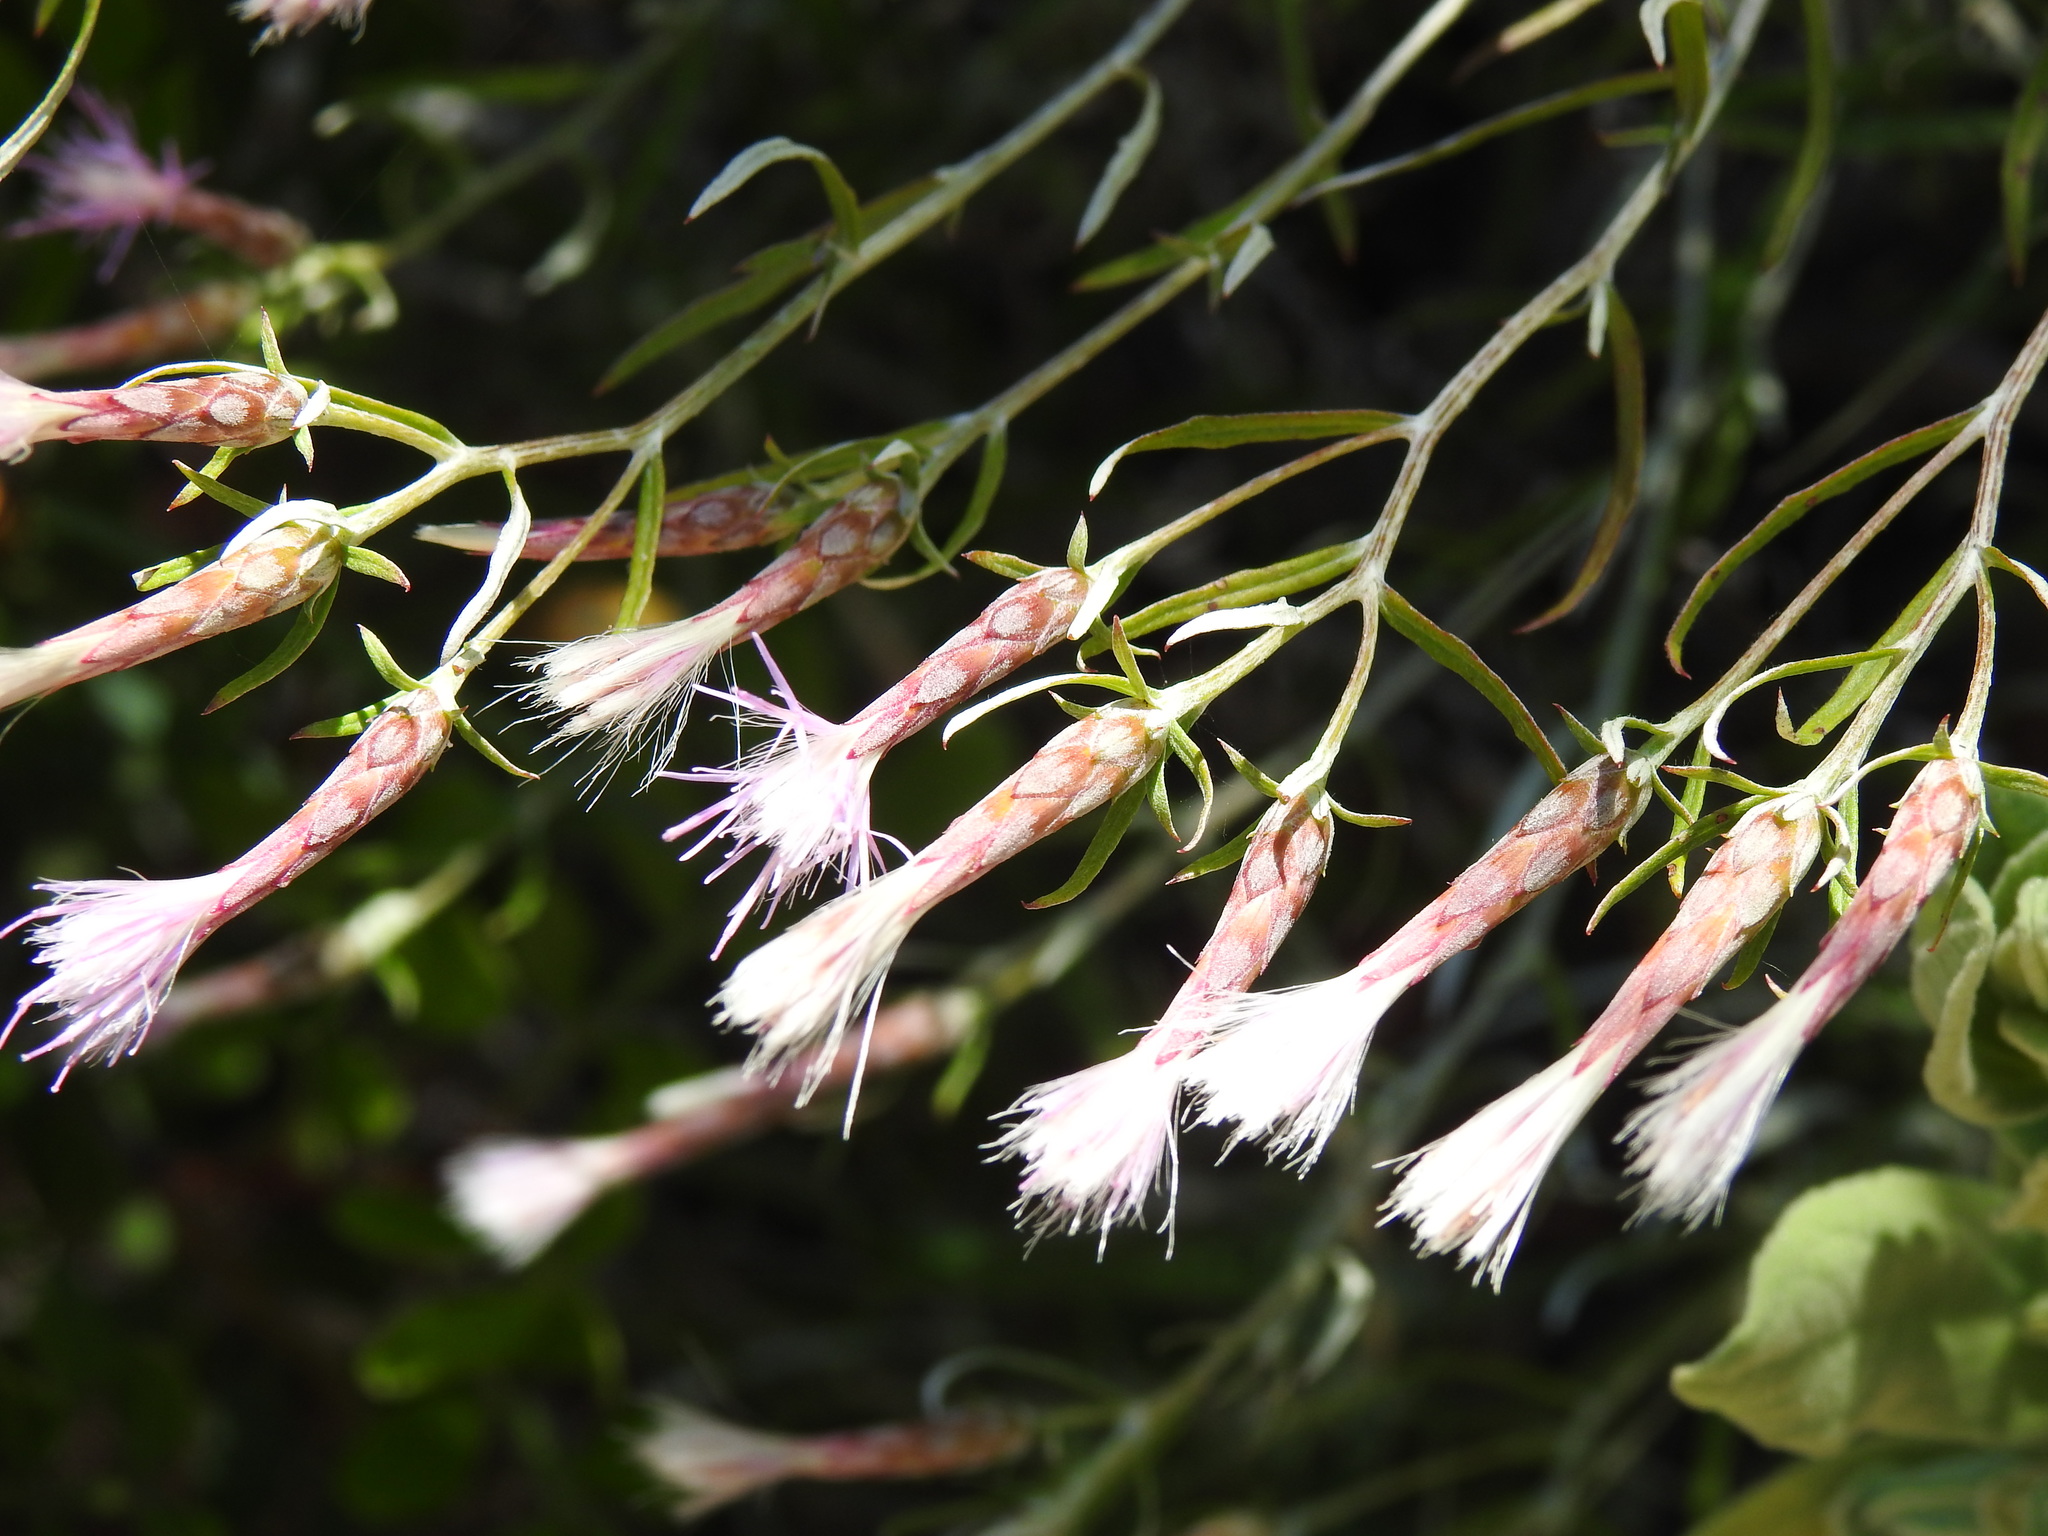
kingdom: Plantae
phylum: Tracheophyta
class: Magnoliopsida
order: Asterales
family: Asteraceae
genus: Staehelina
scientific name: Staehelina dubia
